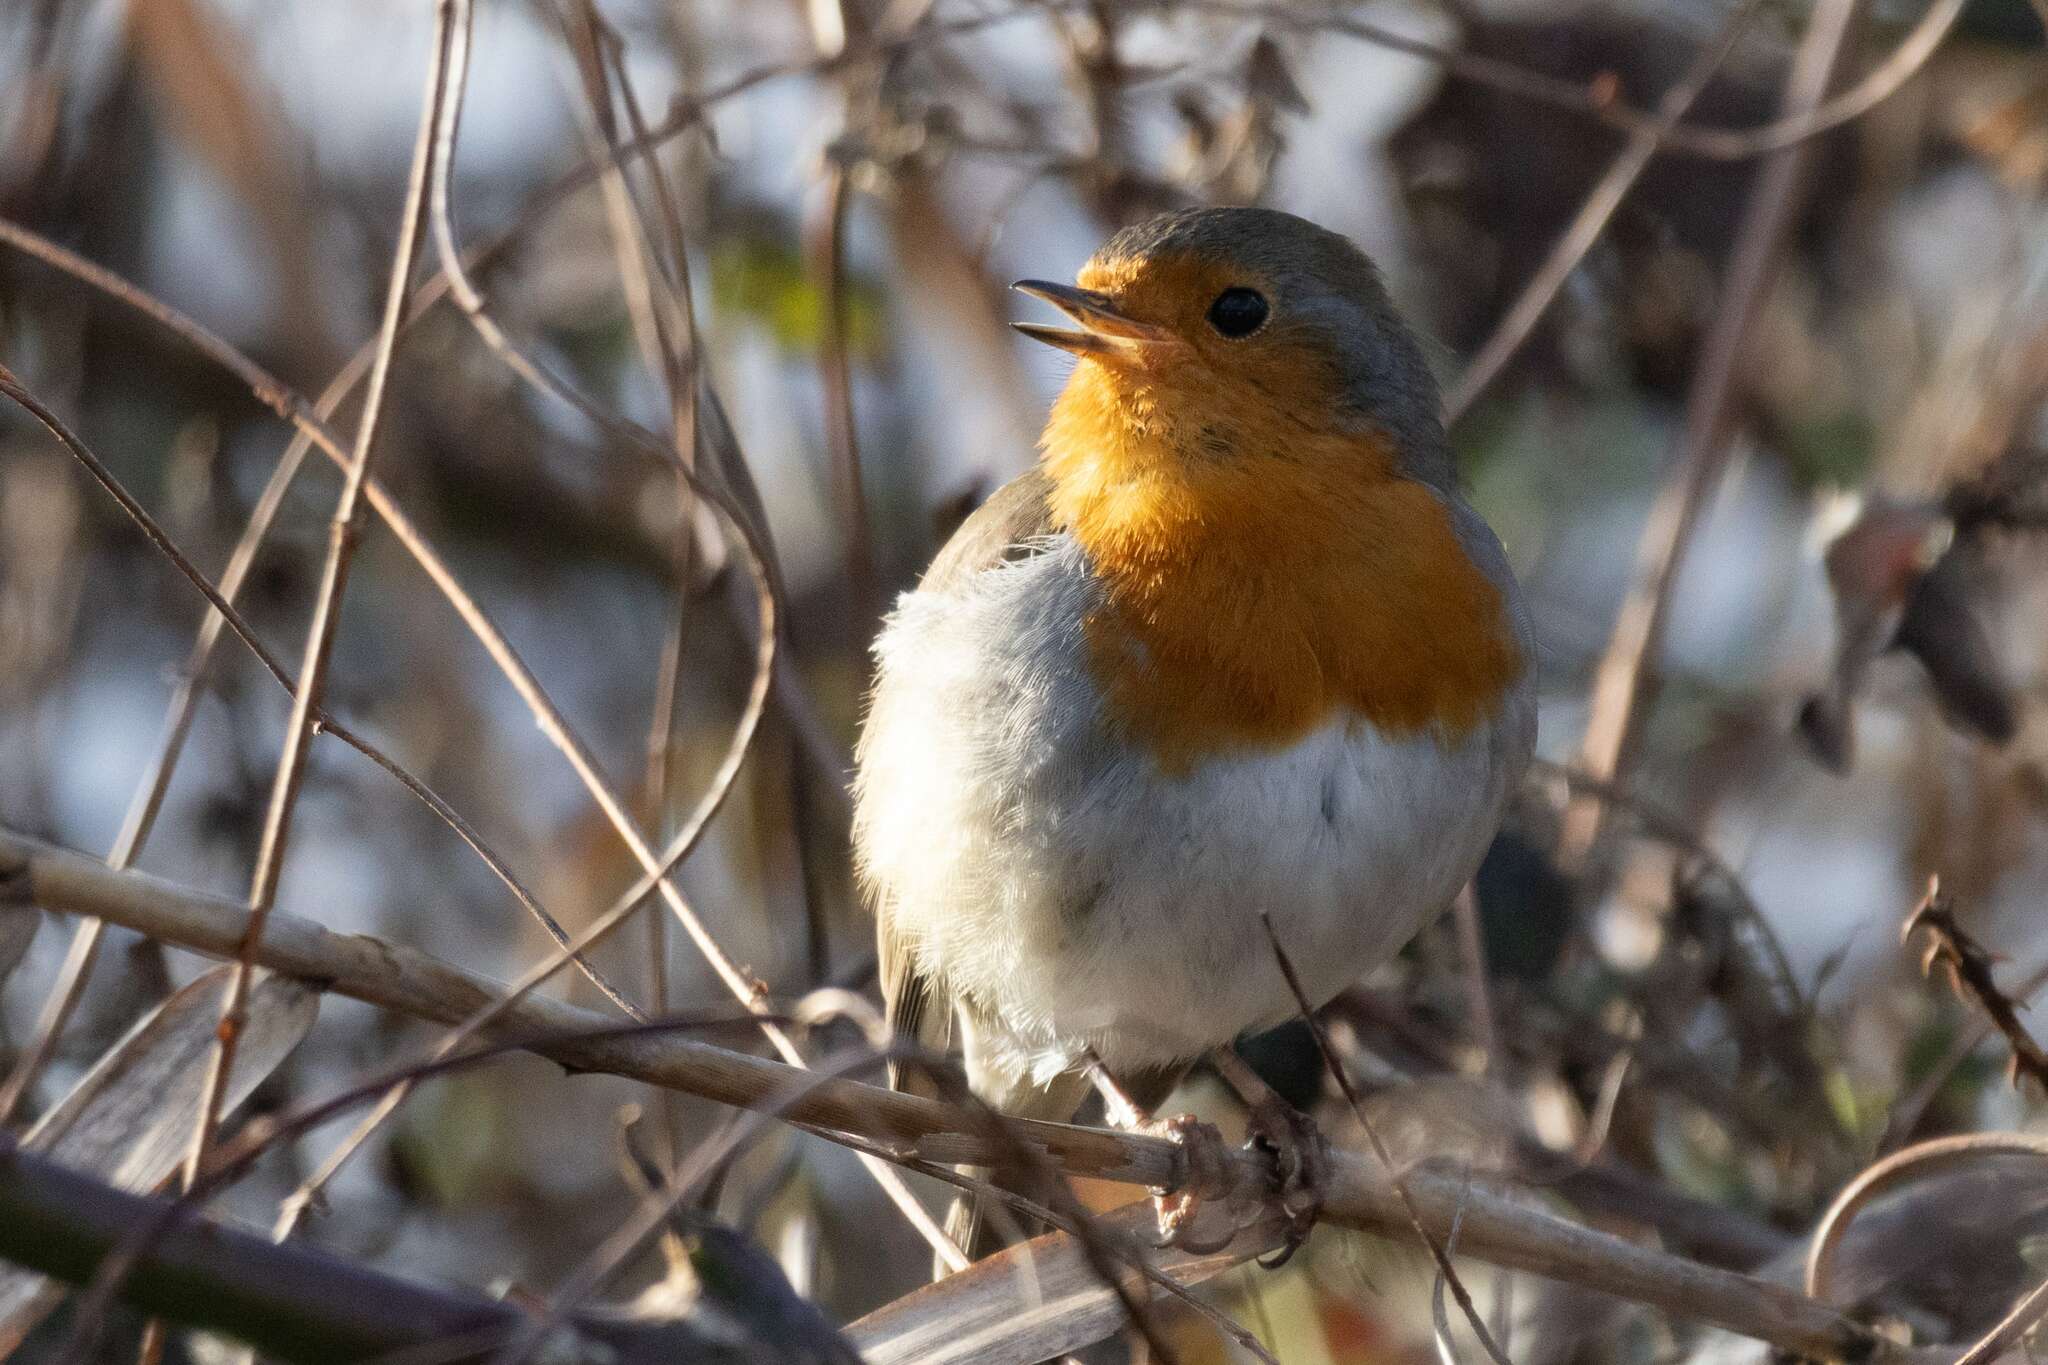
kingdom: Animalia
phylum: Chordata
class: Aves
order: Passeriformes
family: Muscicapidae
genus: Erithacus
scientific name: Erithacus rubecula
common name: European robin
